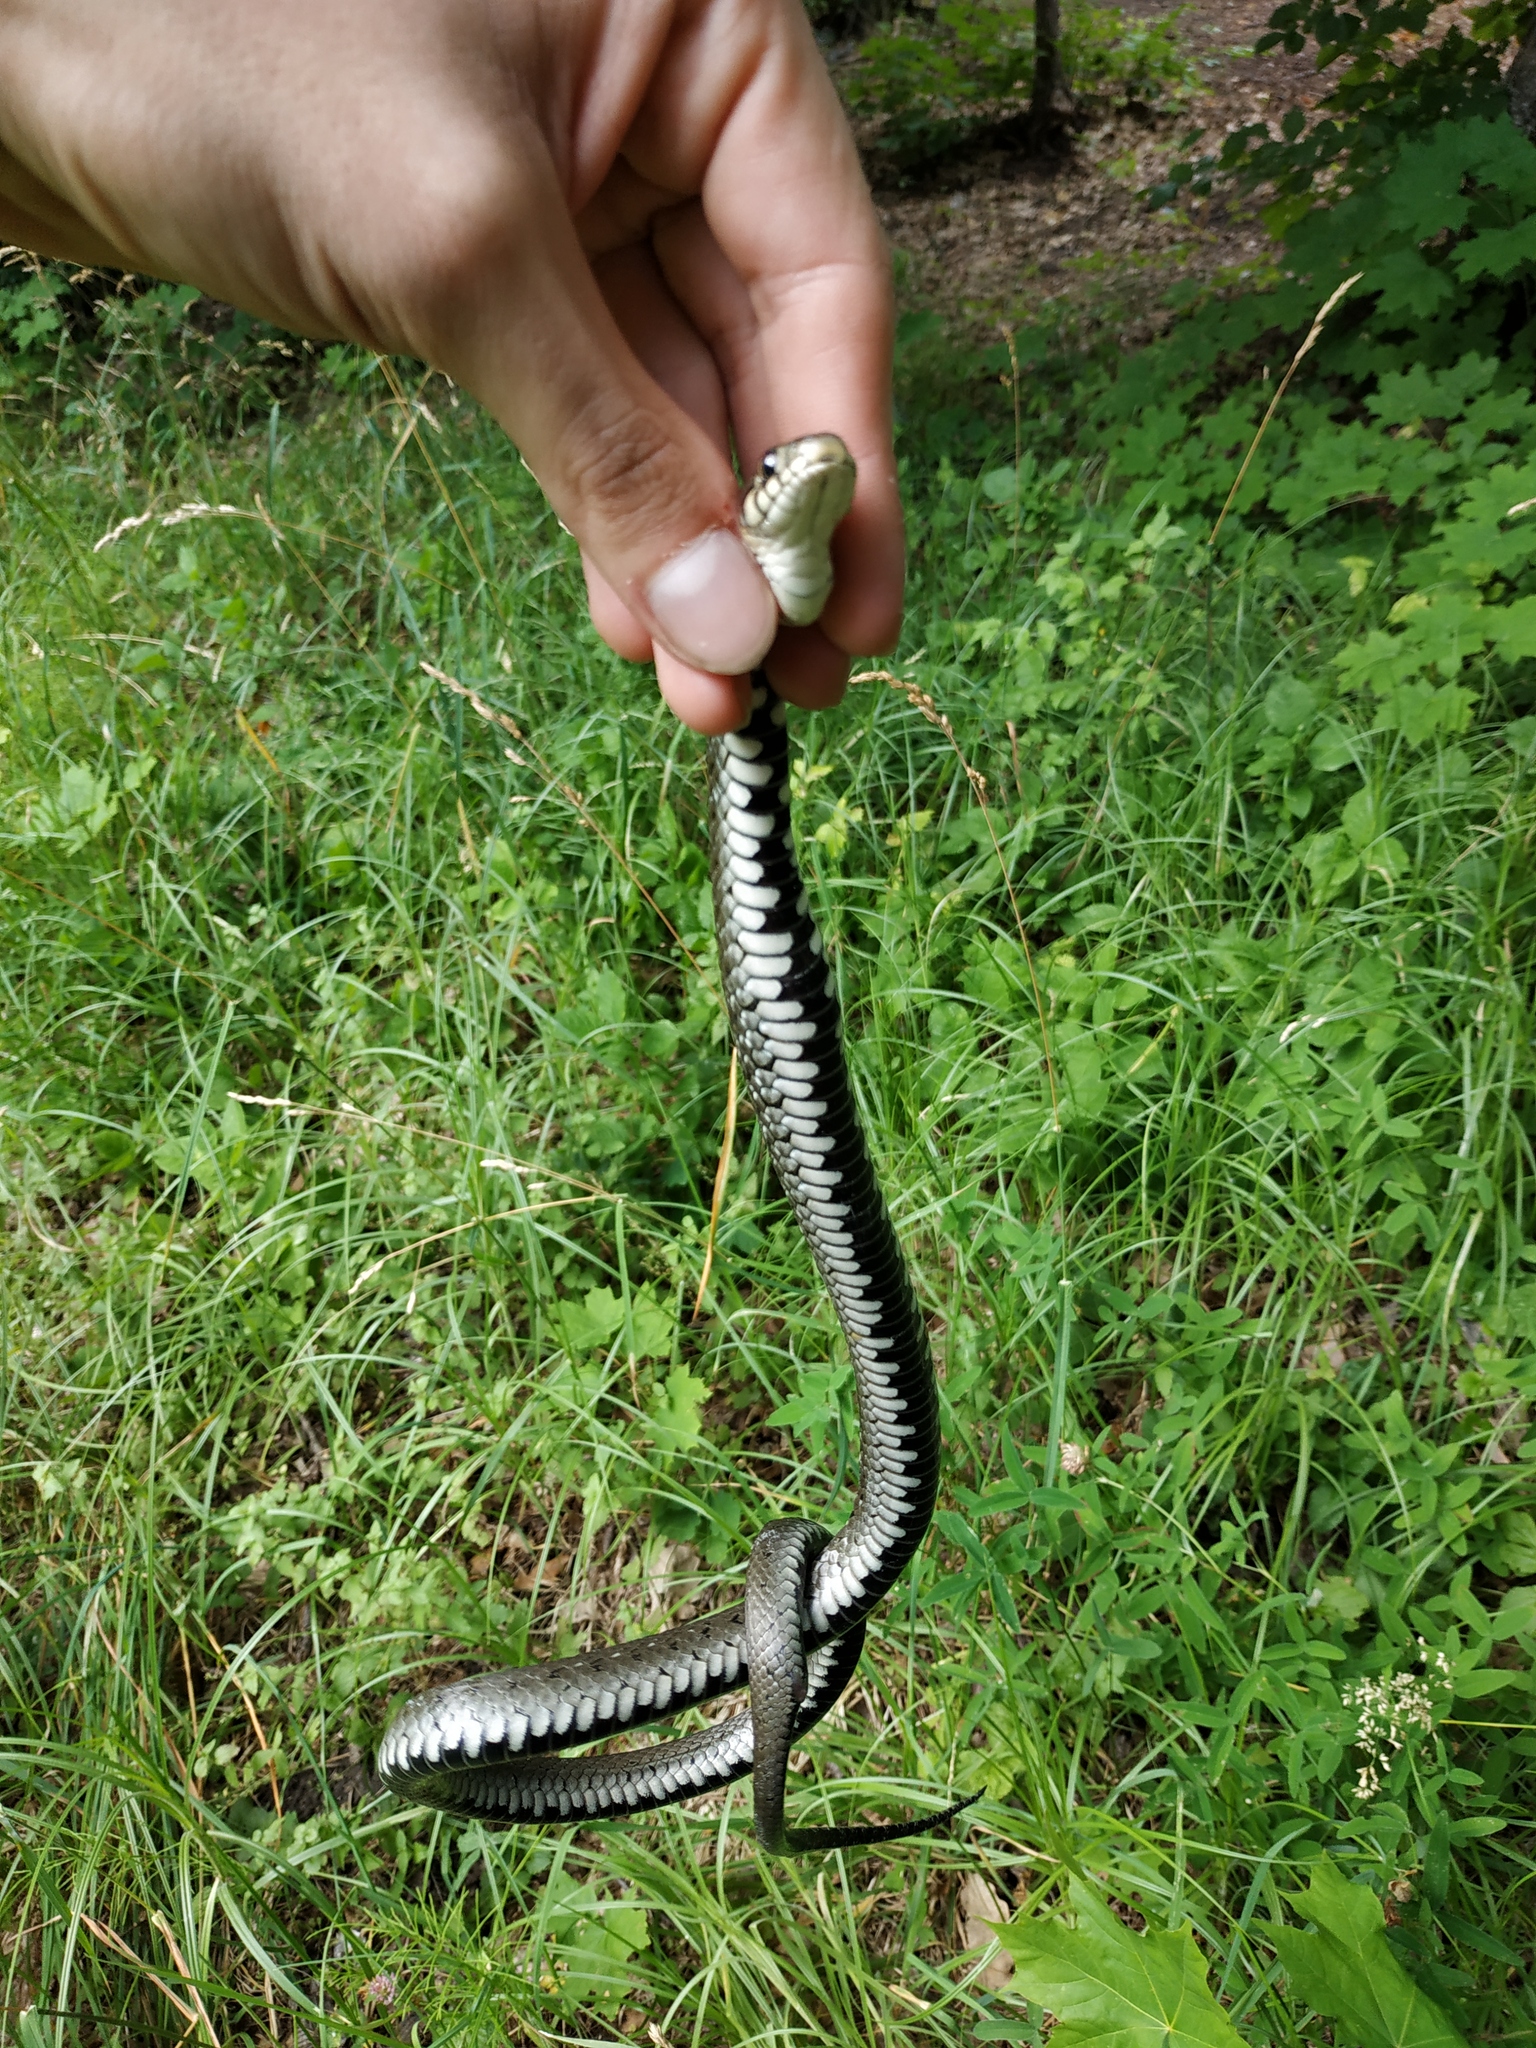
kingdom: Animalia
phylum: Chordata
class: Squamata
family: Colubridae
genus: Natrix
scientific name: Natrix natrix
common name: Grass snake
